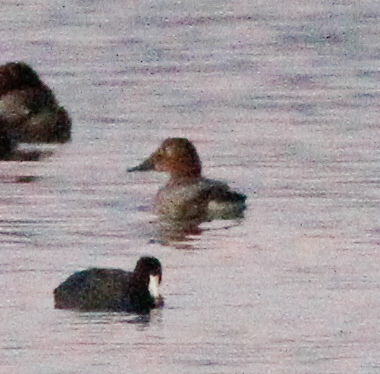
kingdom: Animalia
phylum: Chordata
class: Aves
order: Anseriformes
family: Anatidae
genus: Aythya
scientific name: Aythya valisineria
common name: Canvasback
